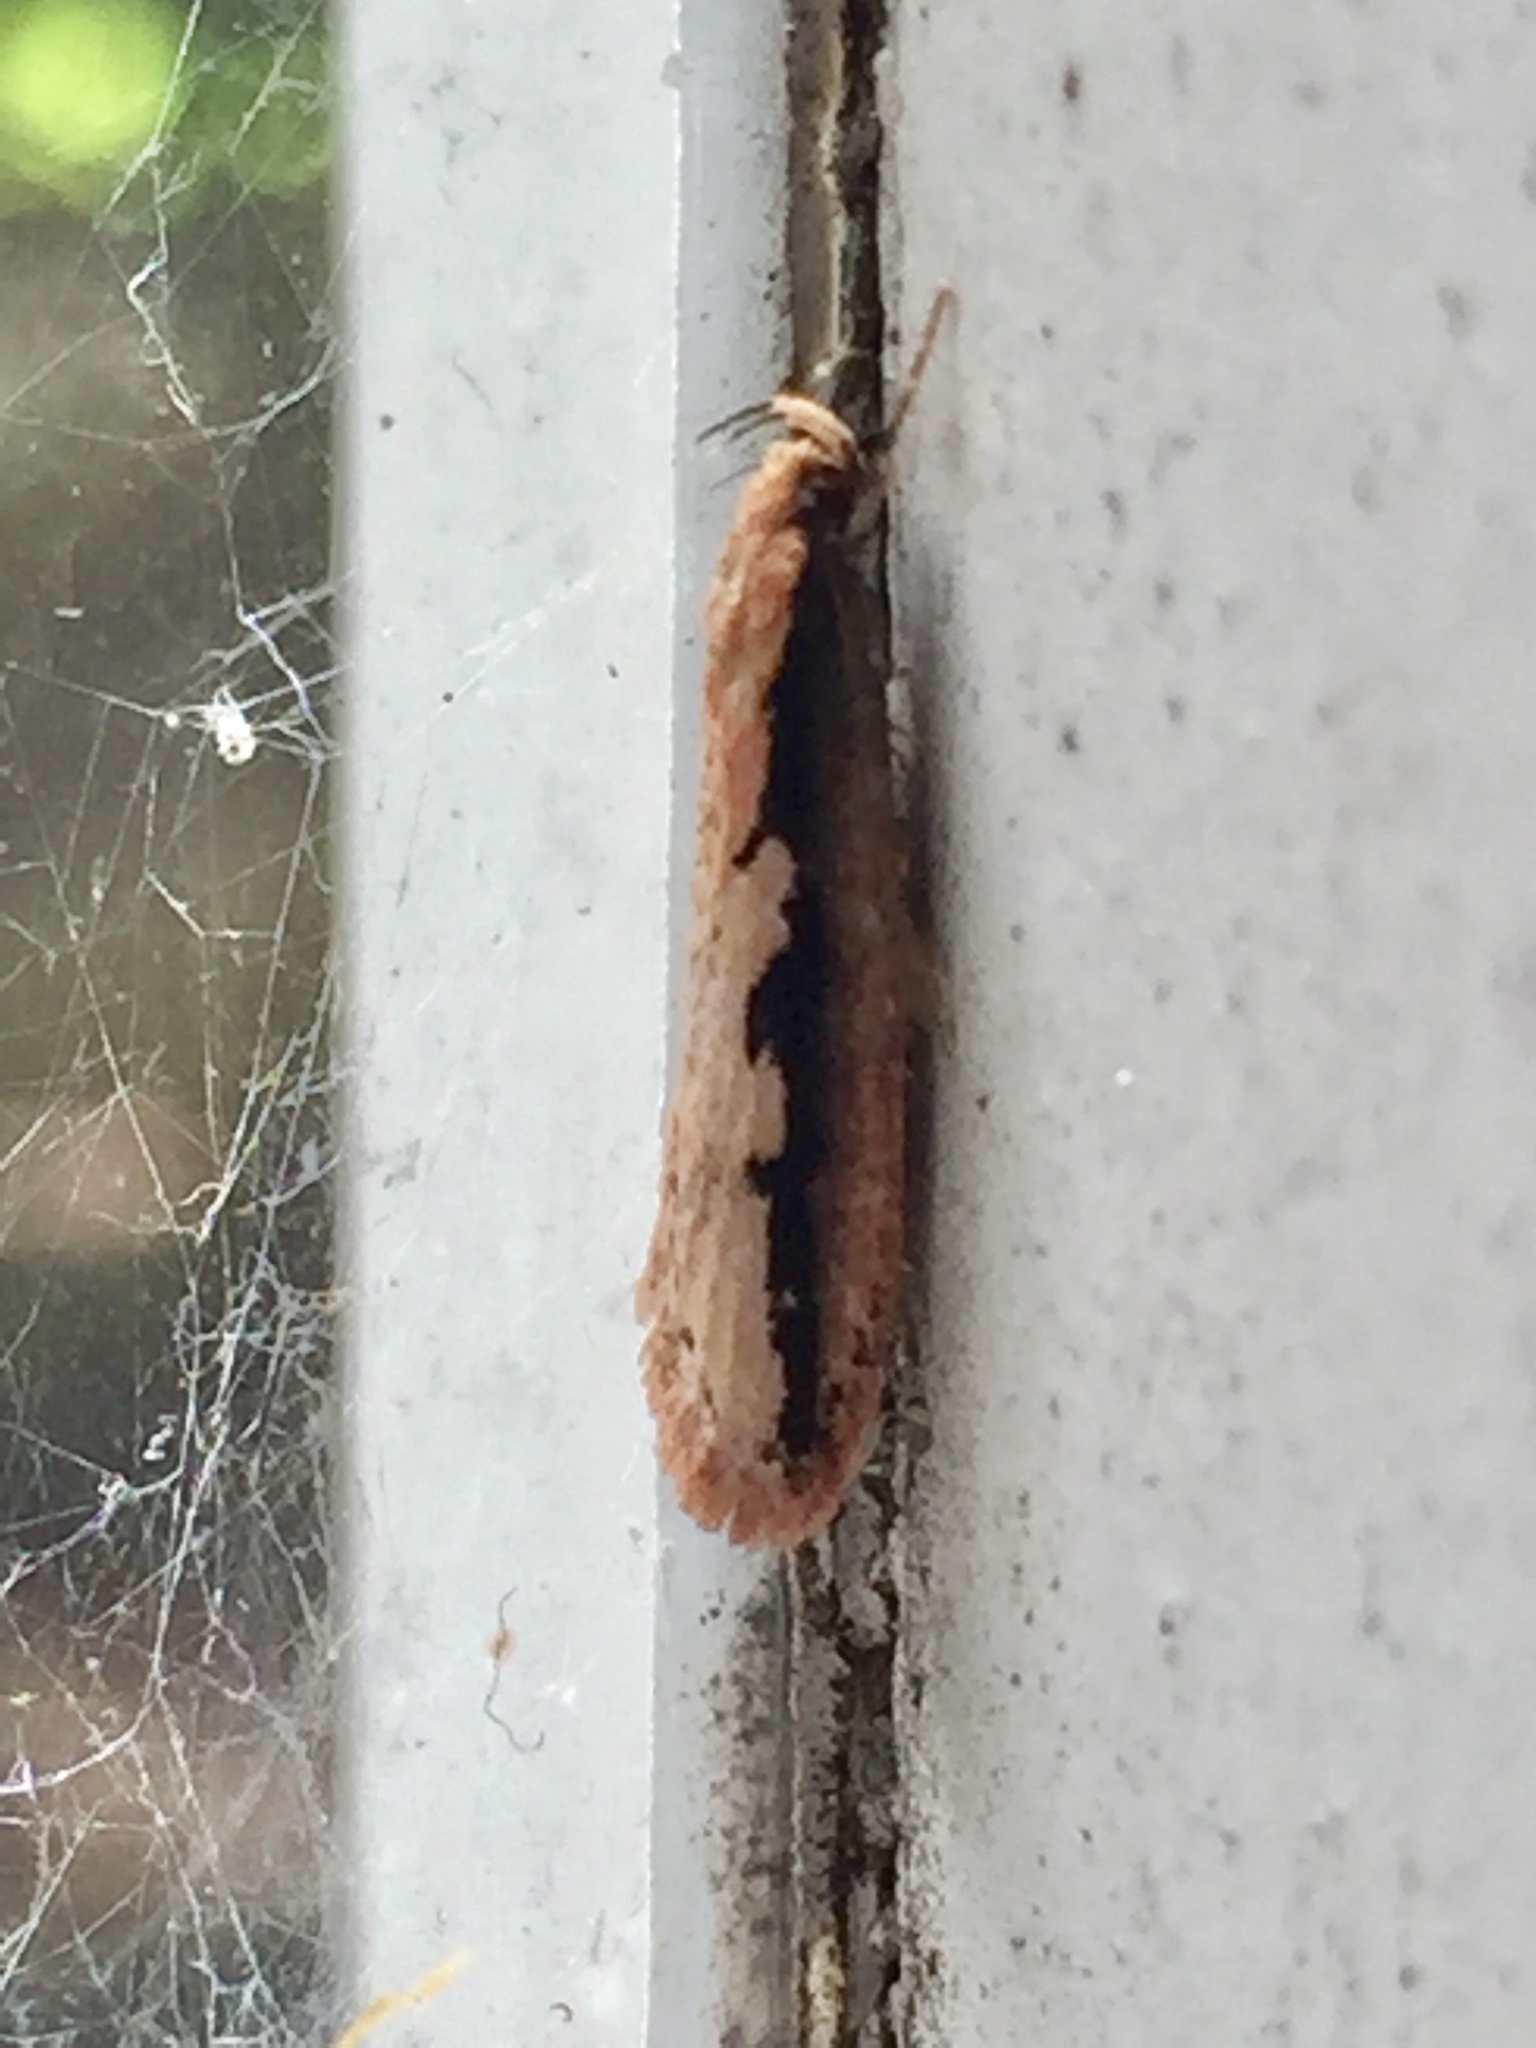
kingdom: Animalia
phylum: Arthropoda
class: Insecta
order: Lepidoptera
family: Oecophoridae
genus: Leptocroca
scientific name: Leptocroca sanguinolenta
